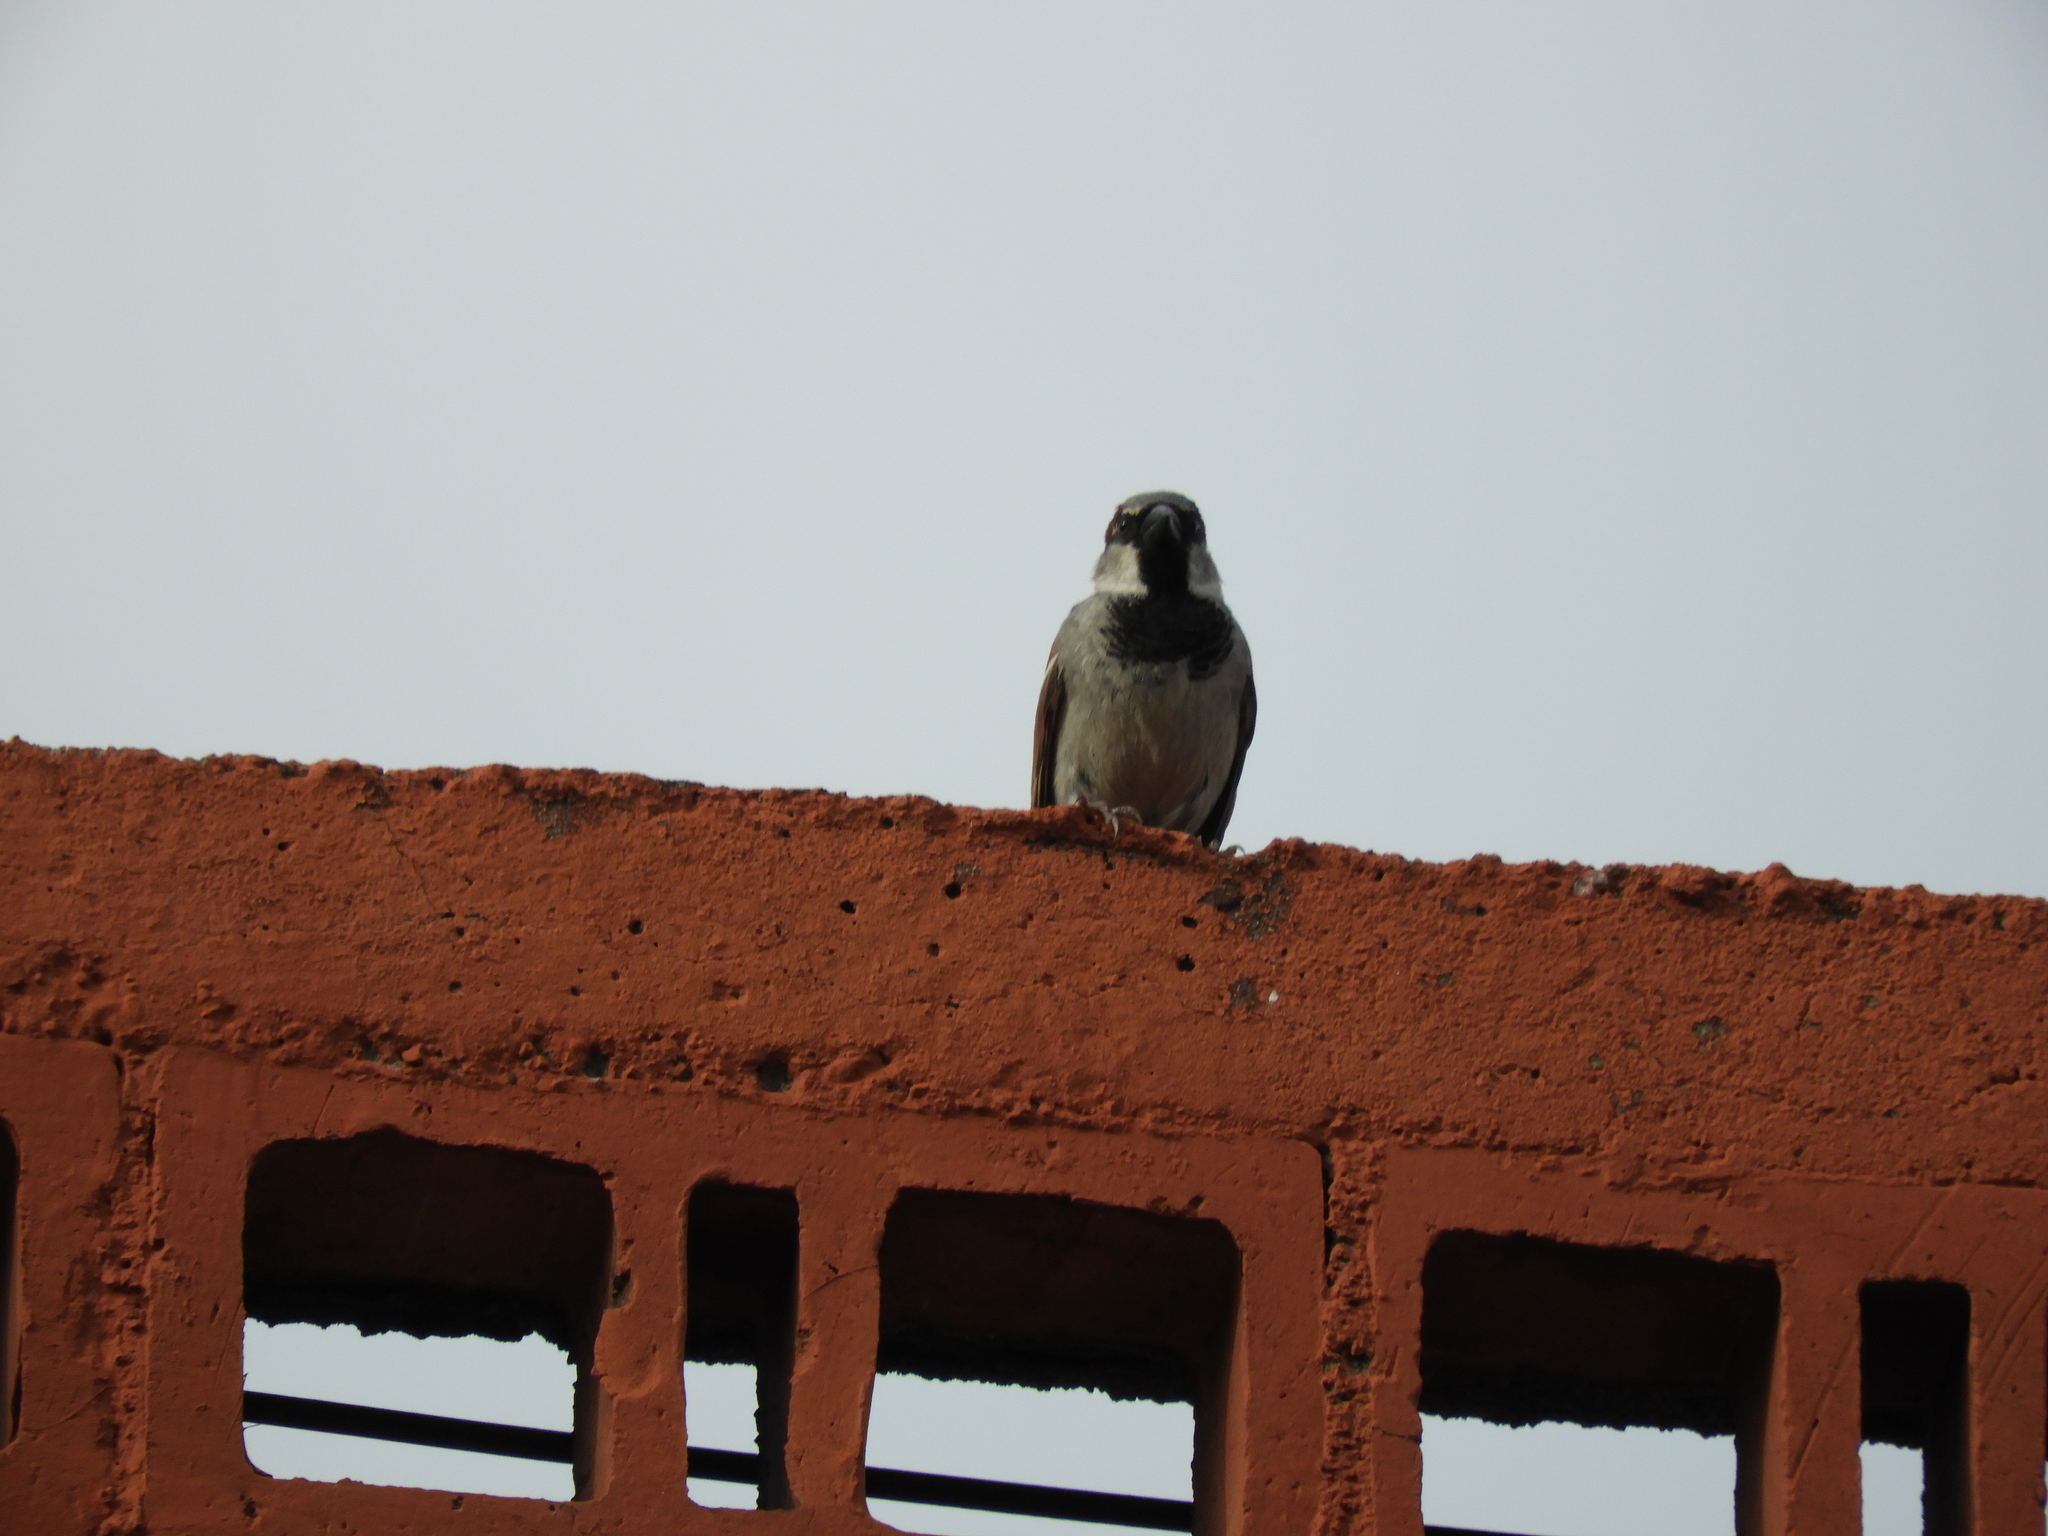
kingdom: Animalia
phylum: Chordata
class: Aves
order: Passeriformes
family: Passeridae
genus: Passer
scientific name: Passer domesticus
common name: House sparrow
